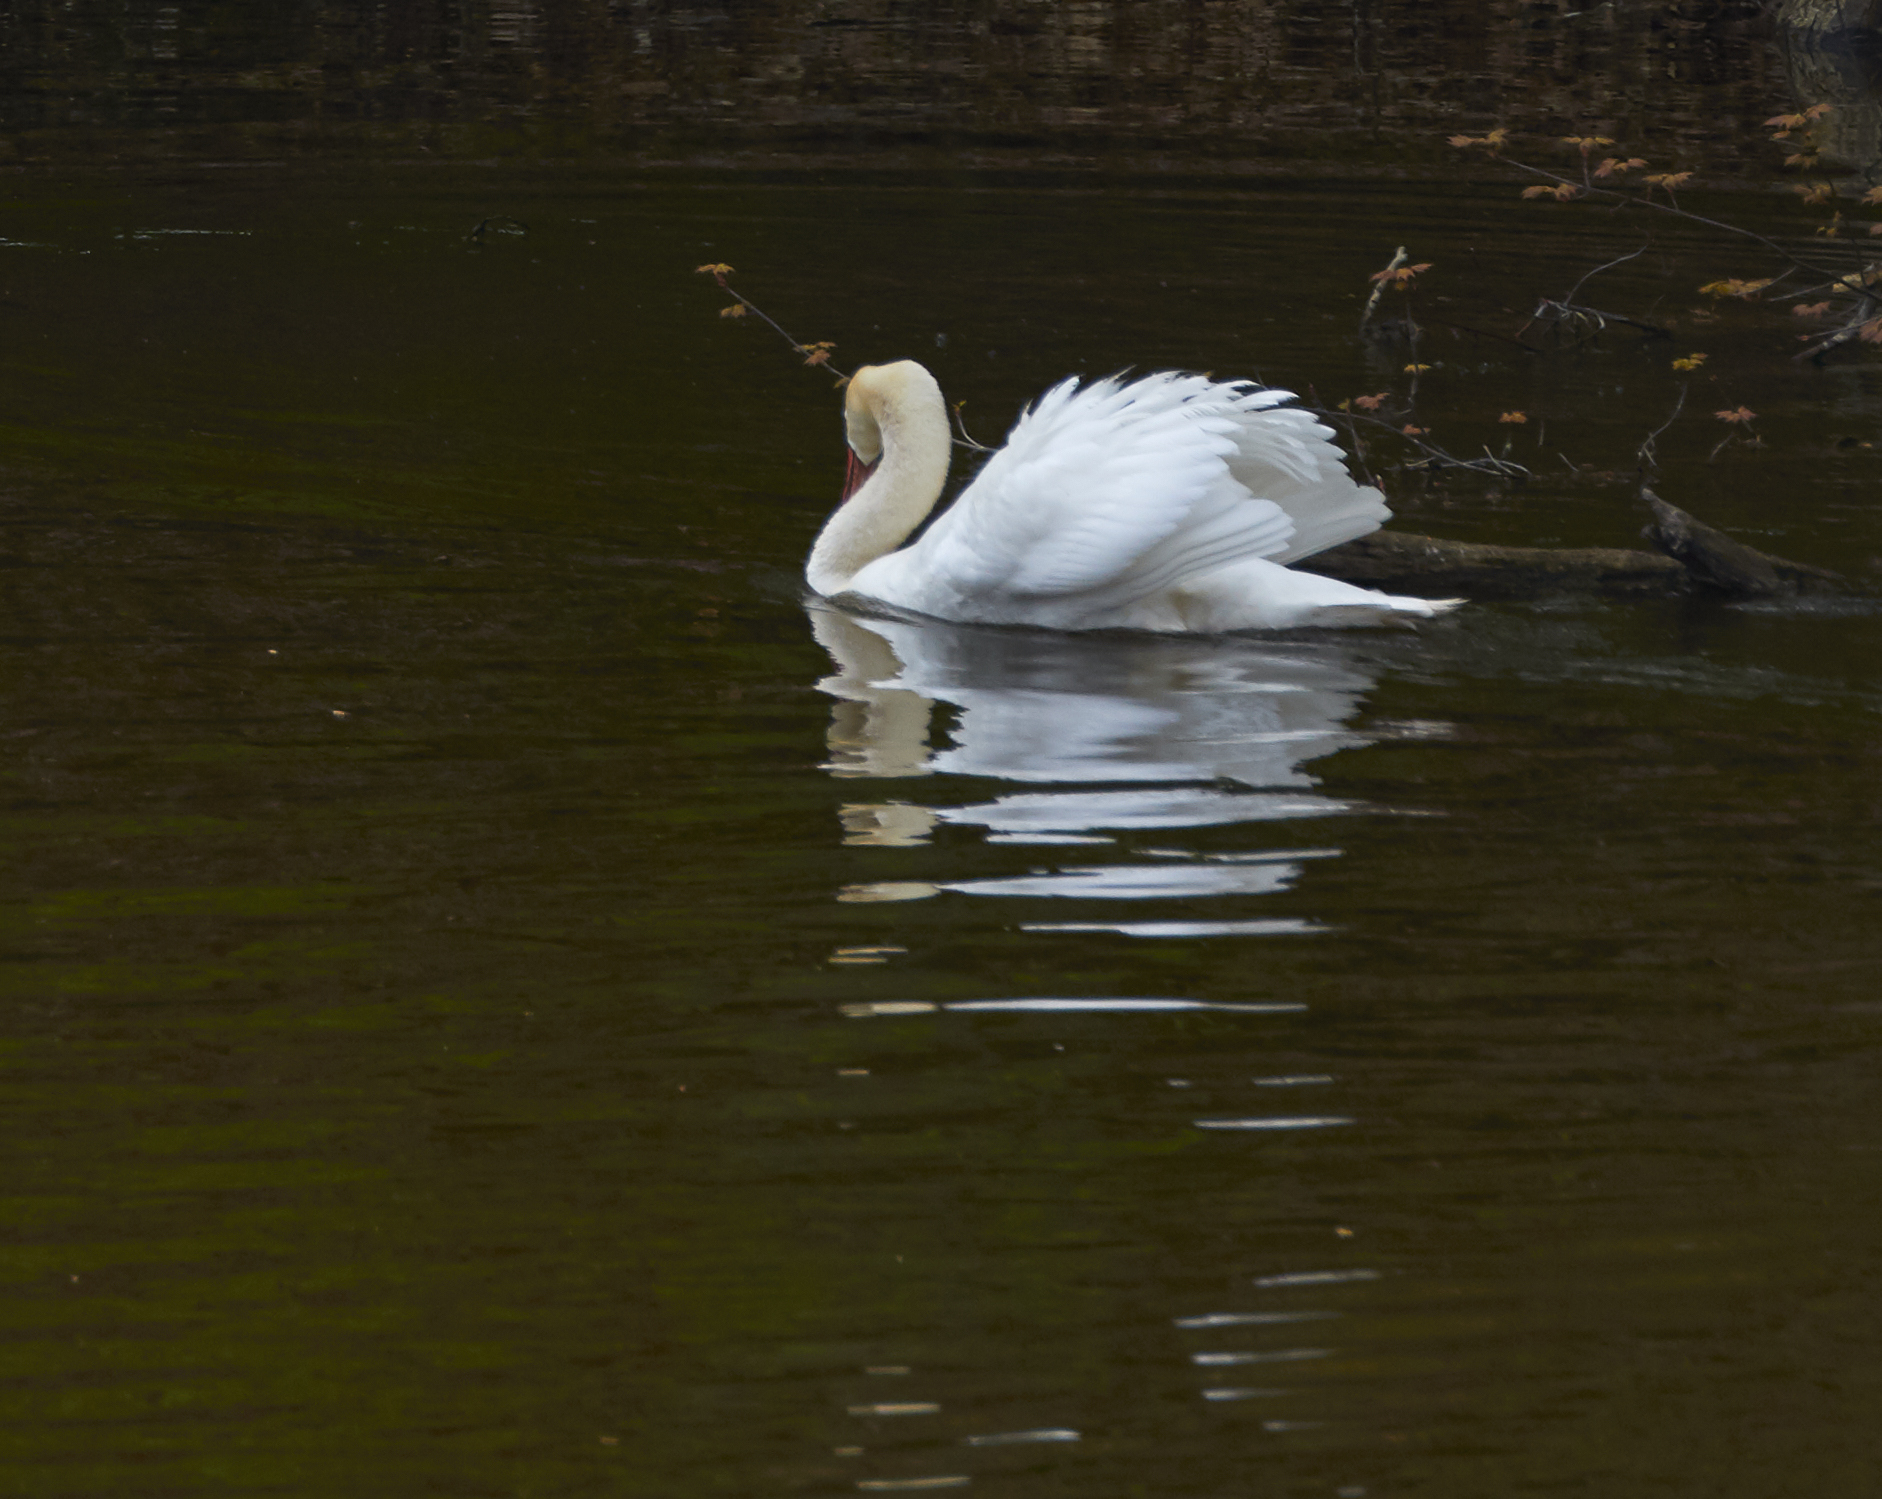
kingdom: Animalia
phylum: Chordata
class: Aves
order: Anseriformes
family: Anatidae
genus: Cygnus
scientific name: Cygnus olor
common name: Mute swan
